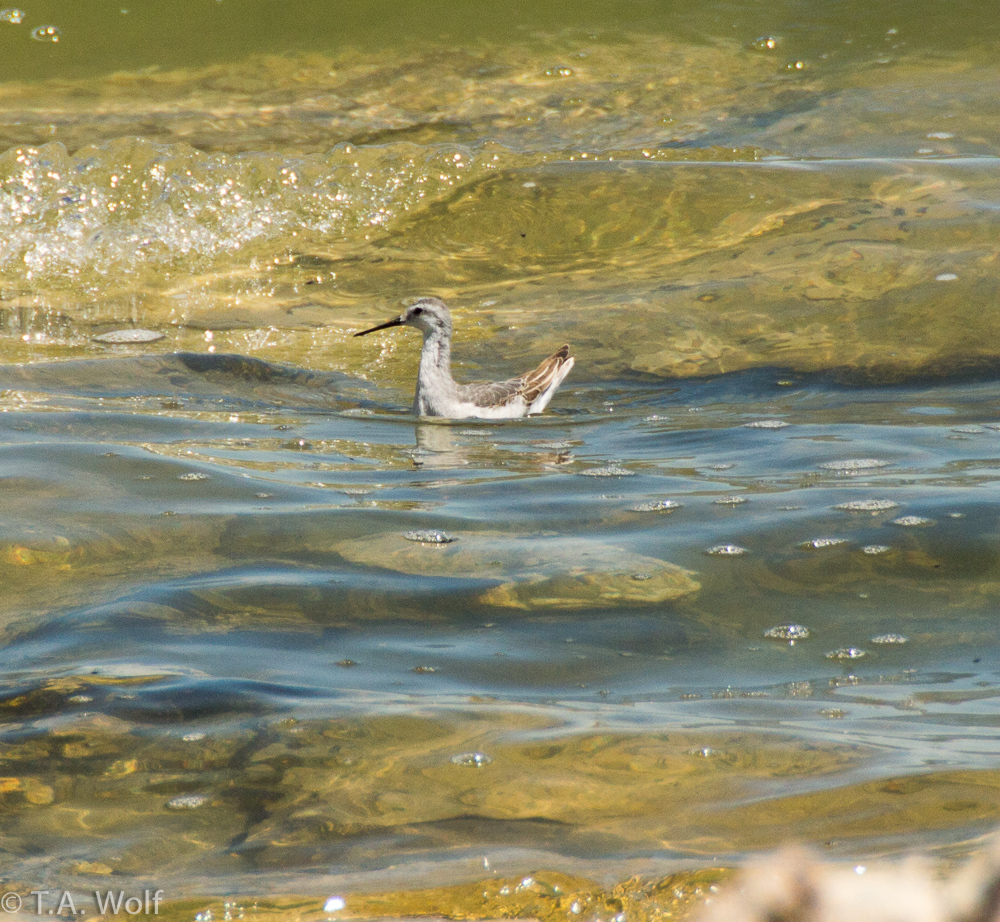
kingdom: Animalia
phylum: Chordata
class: Aves
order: Charadriiformes
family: Scolopacidae
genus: Phalaropus
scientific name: Phalaropus tricolor
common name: Wilson's phalarope
